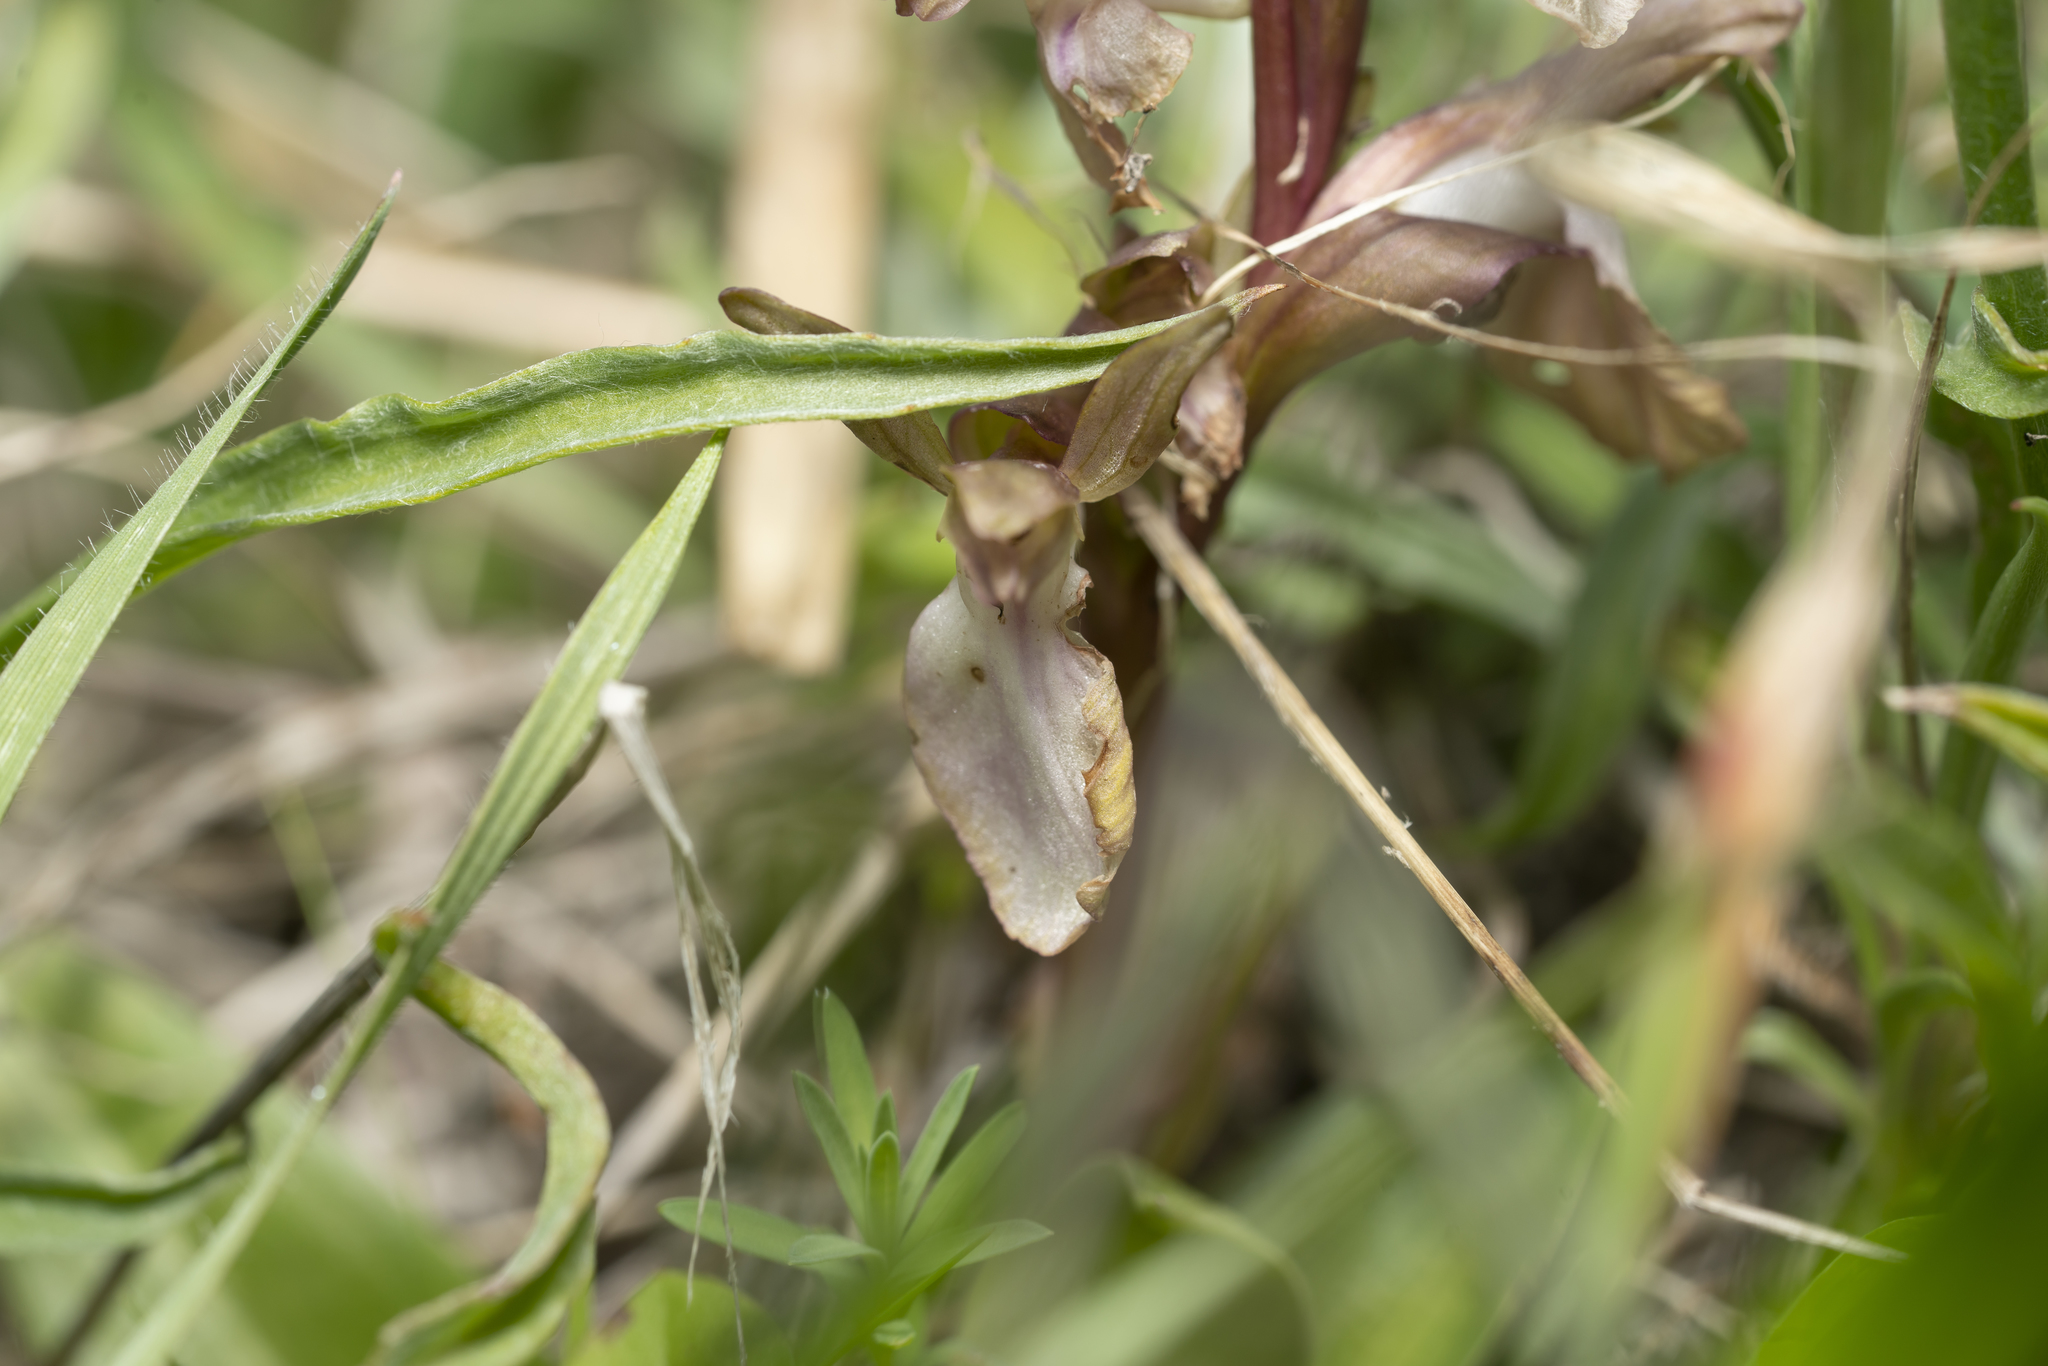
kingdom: Plantae
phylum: Tracheophyta
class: Liliopsida
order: Asparagales
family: Orchidaceae
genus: Anacamptis
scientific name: Anacamptis collina
